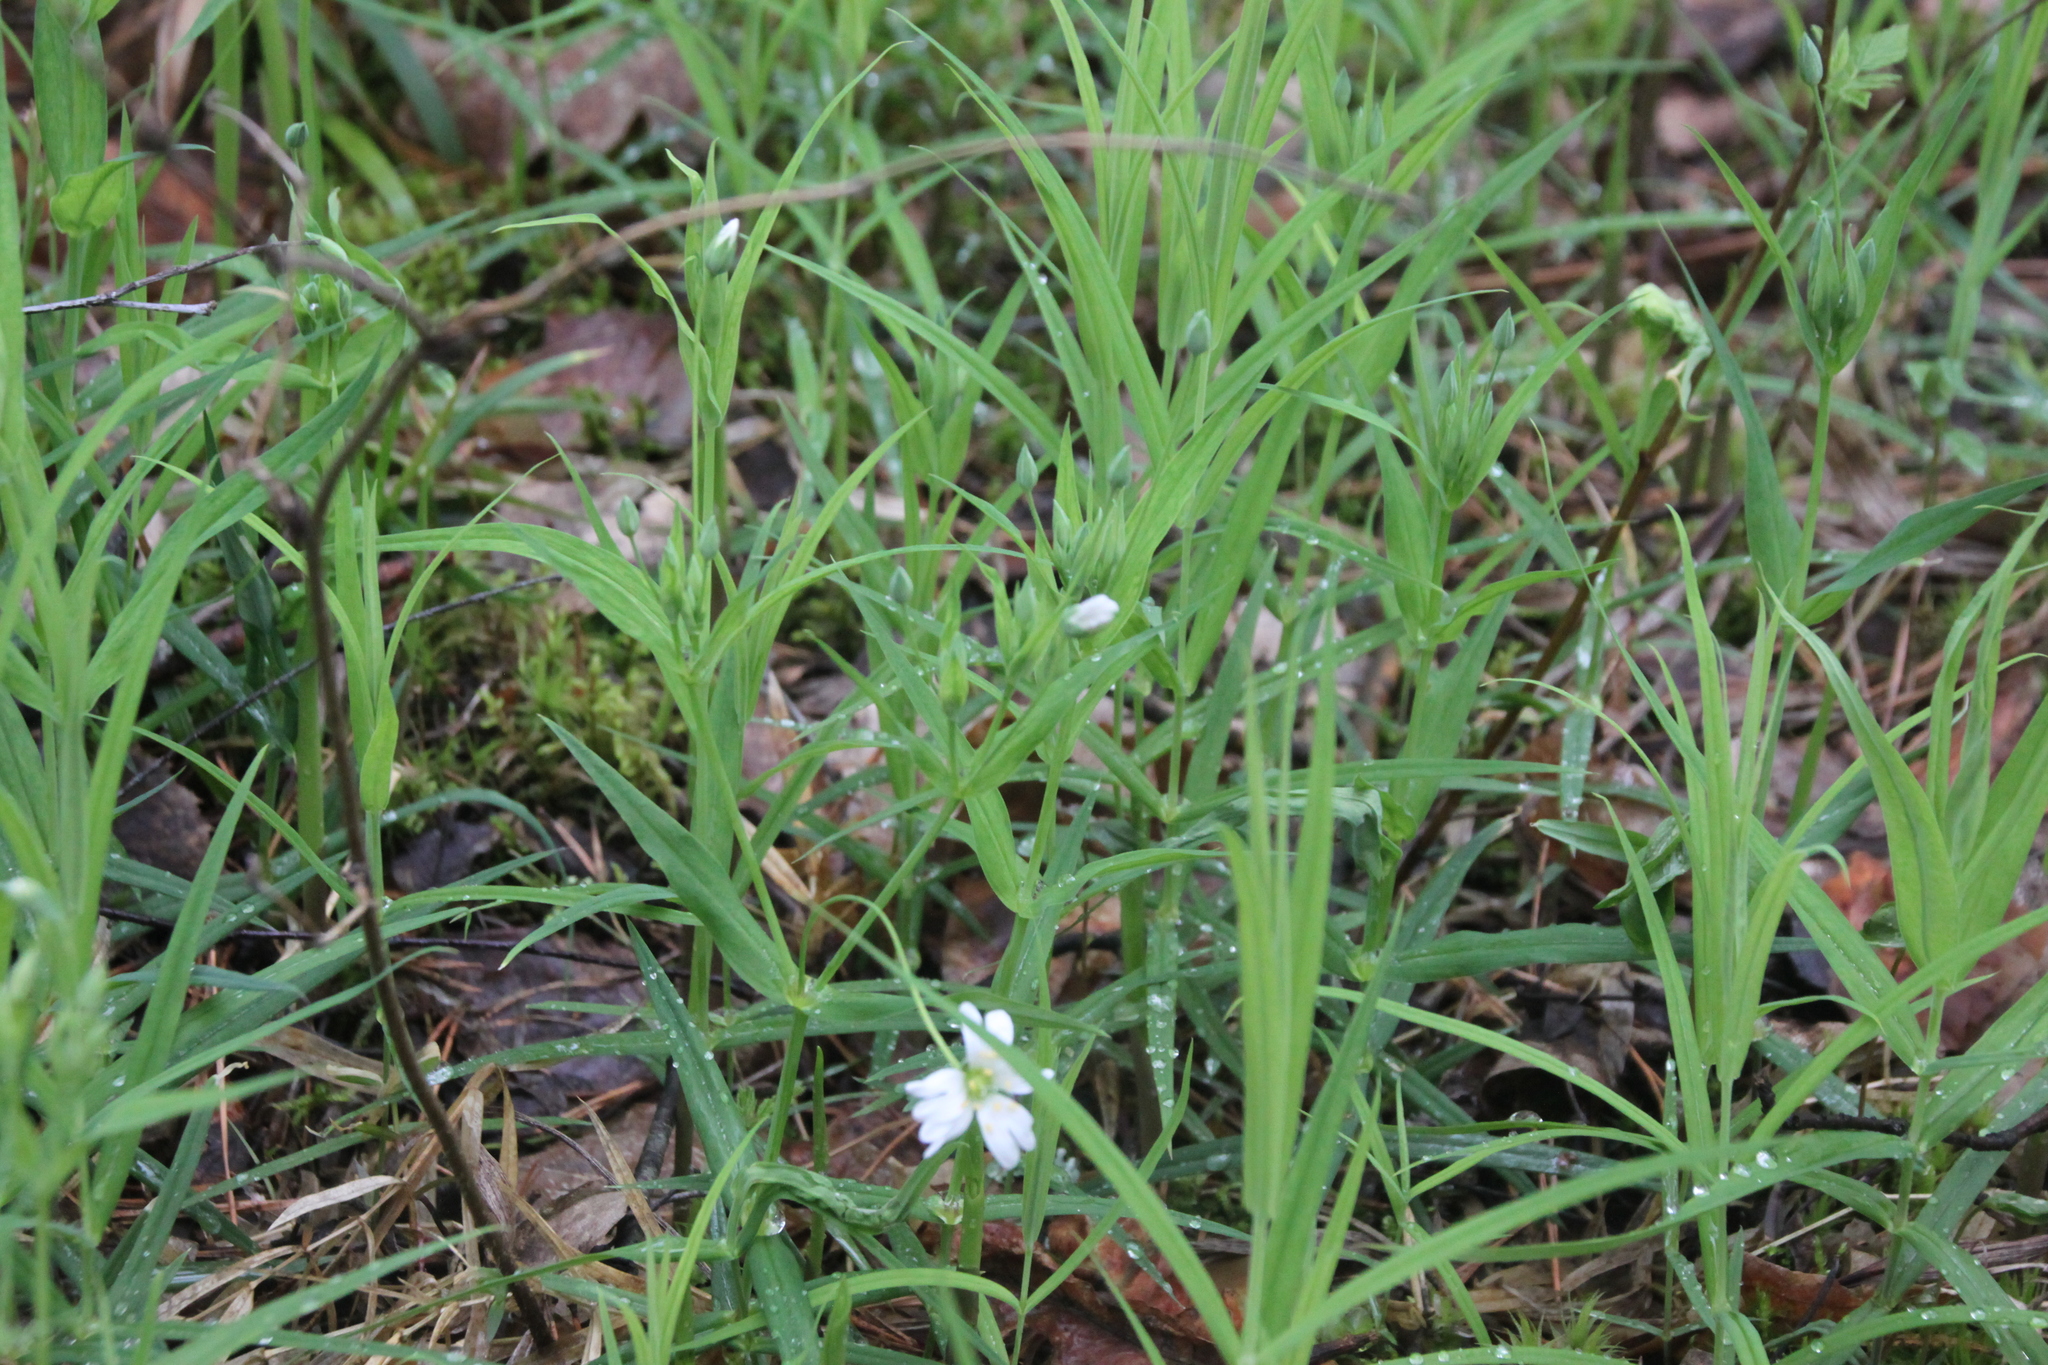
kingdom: Plantae
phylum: Tracheophyta
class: Magnoliopsida
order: Caryophyllales
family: Caryophyllaceae
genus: Rabelera
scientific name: Rabelera holostea
